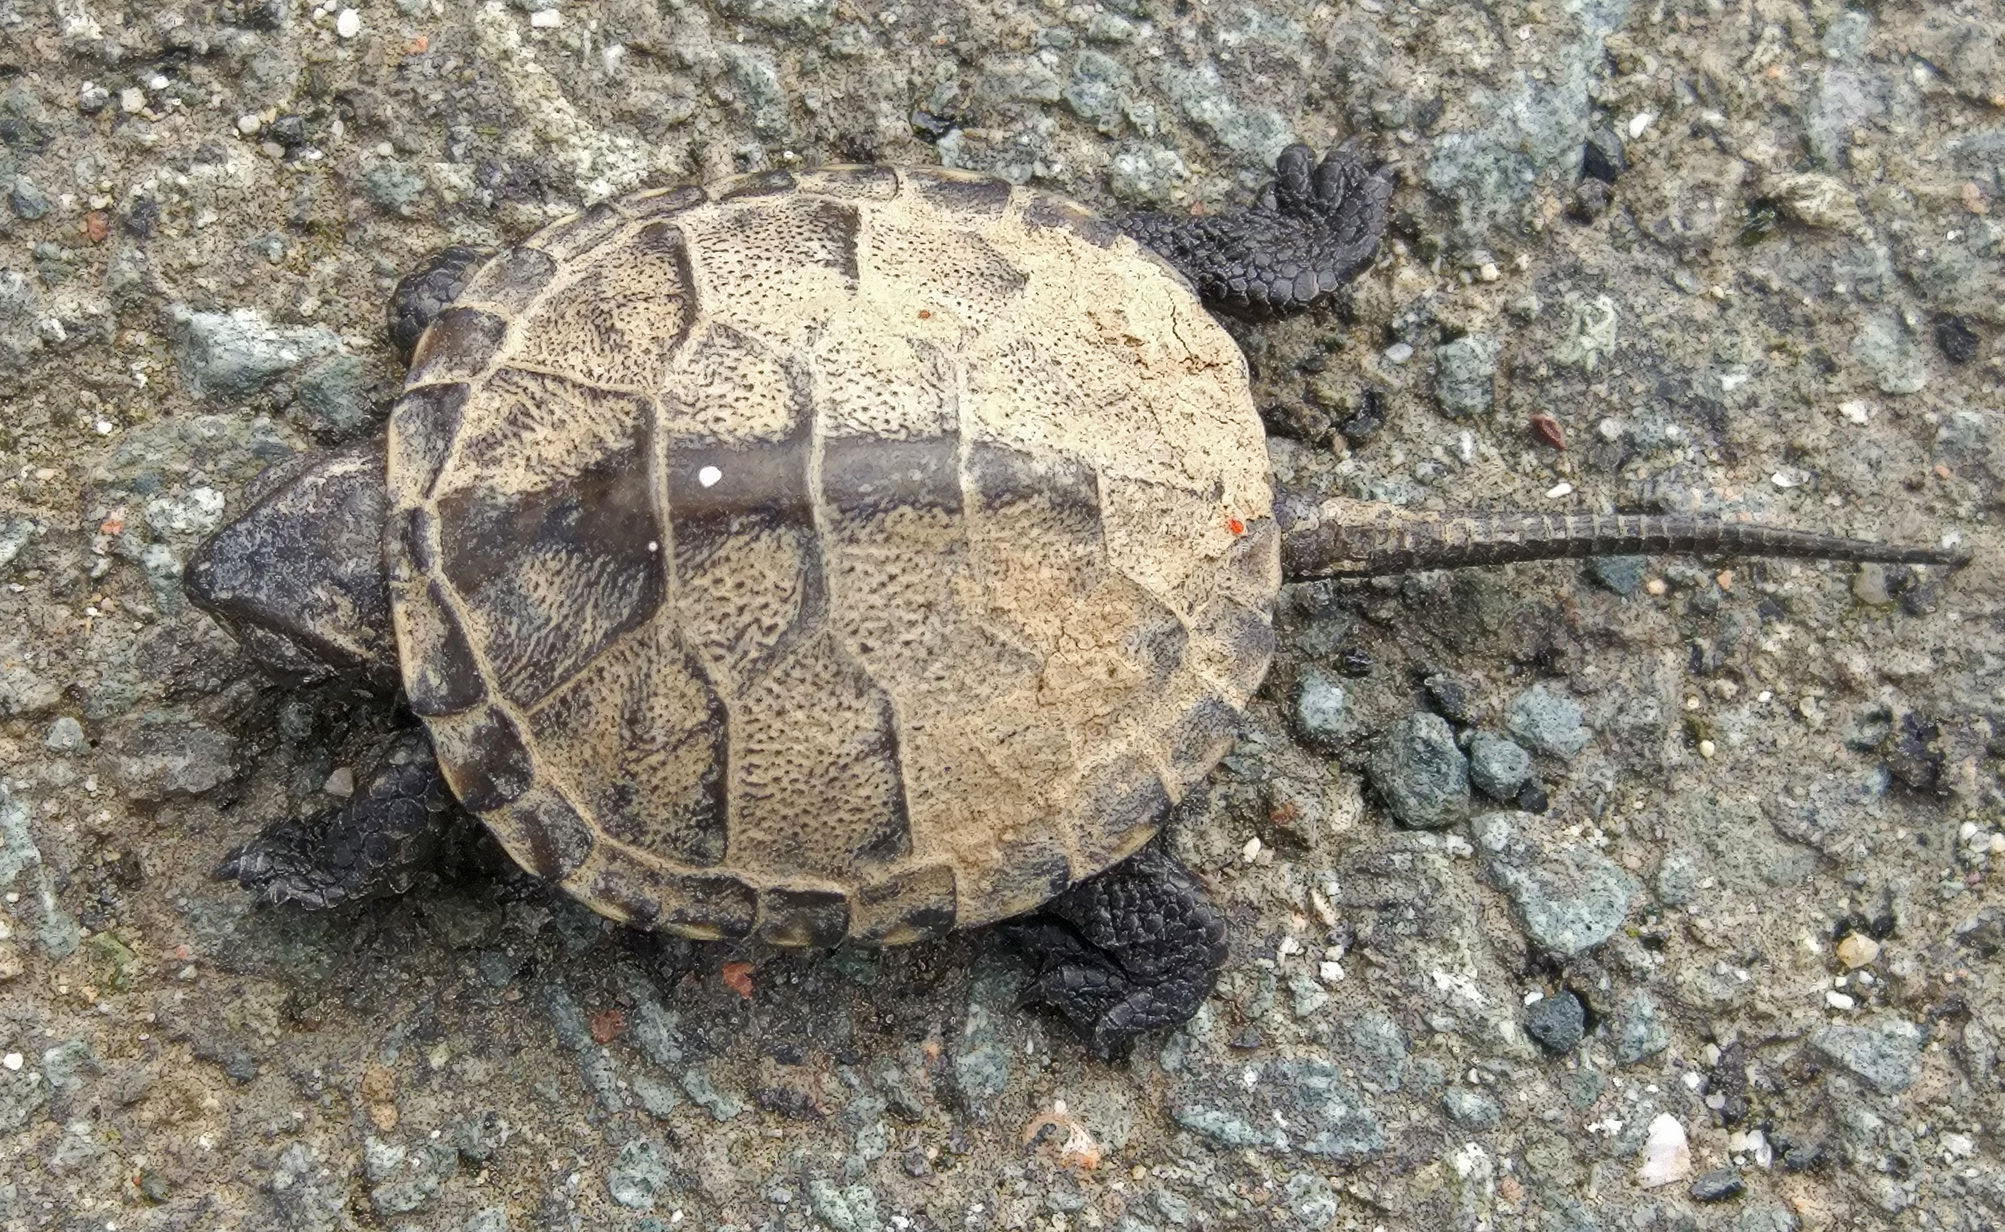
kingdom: Animalia
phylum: Chordata
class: Testudines
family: Emydidae
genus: Emys
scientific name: Emys orbicularis
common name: European pond turtle
